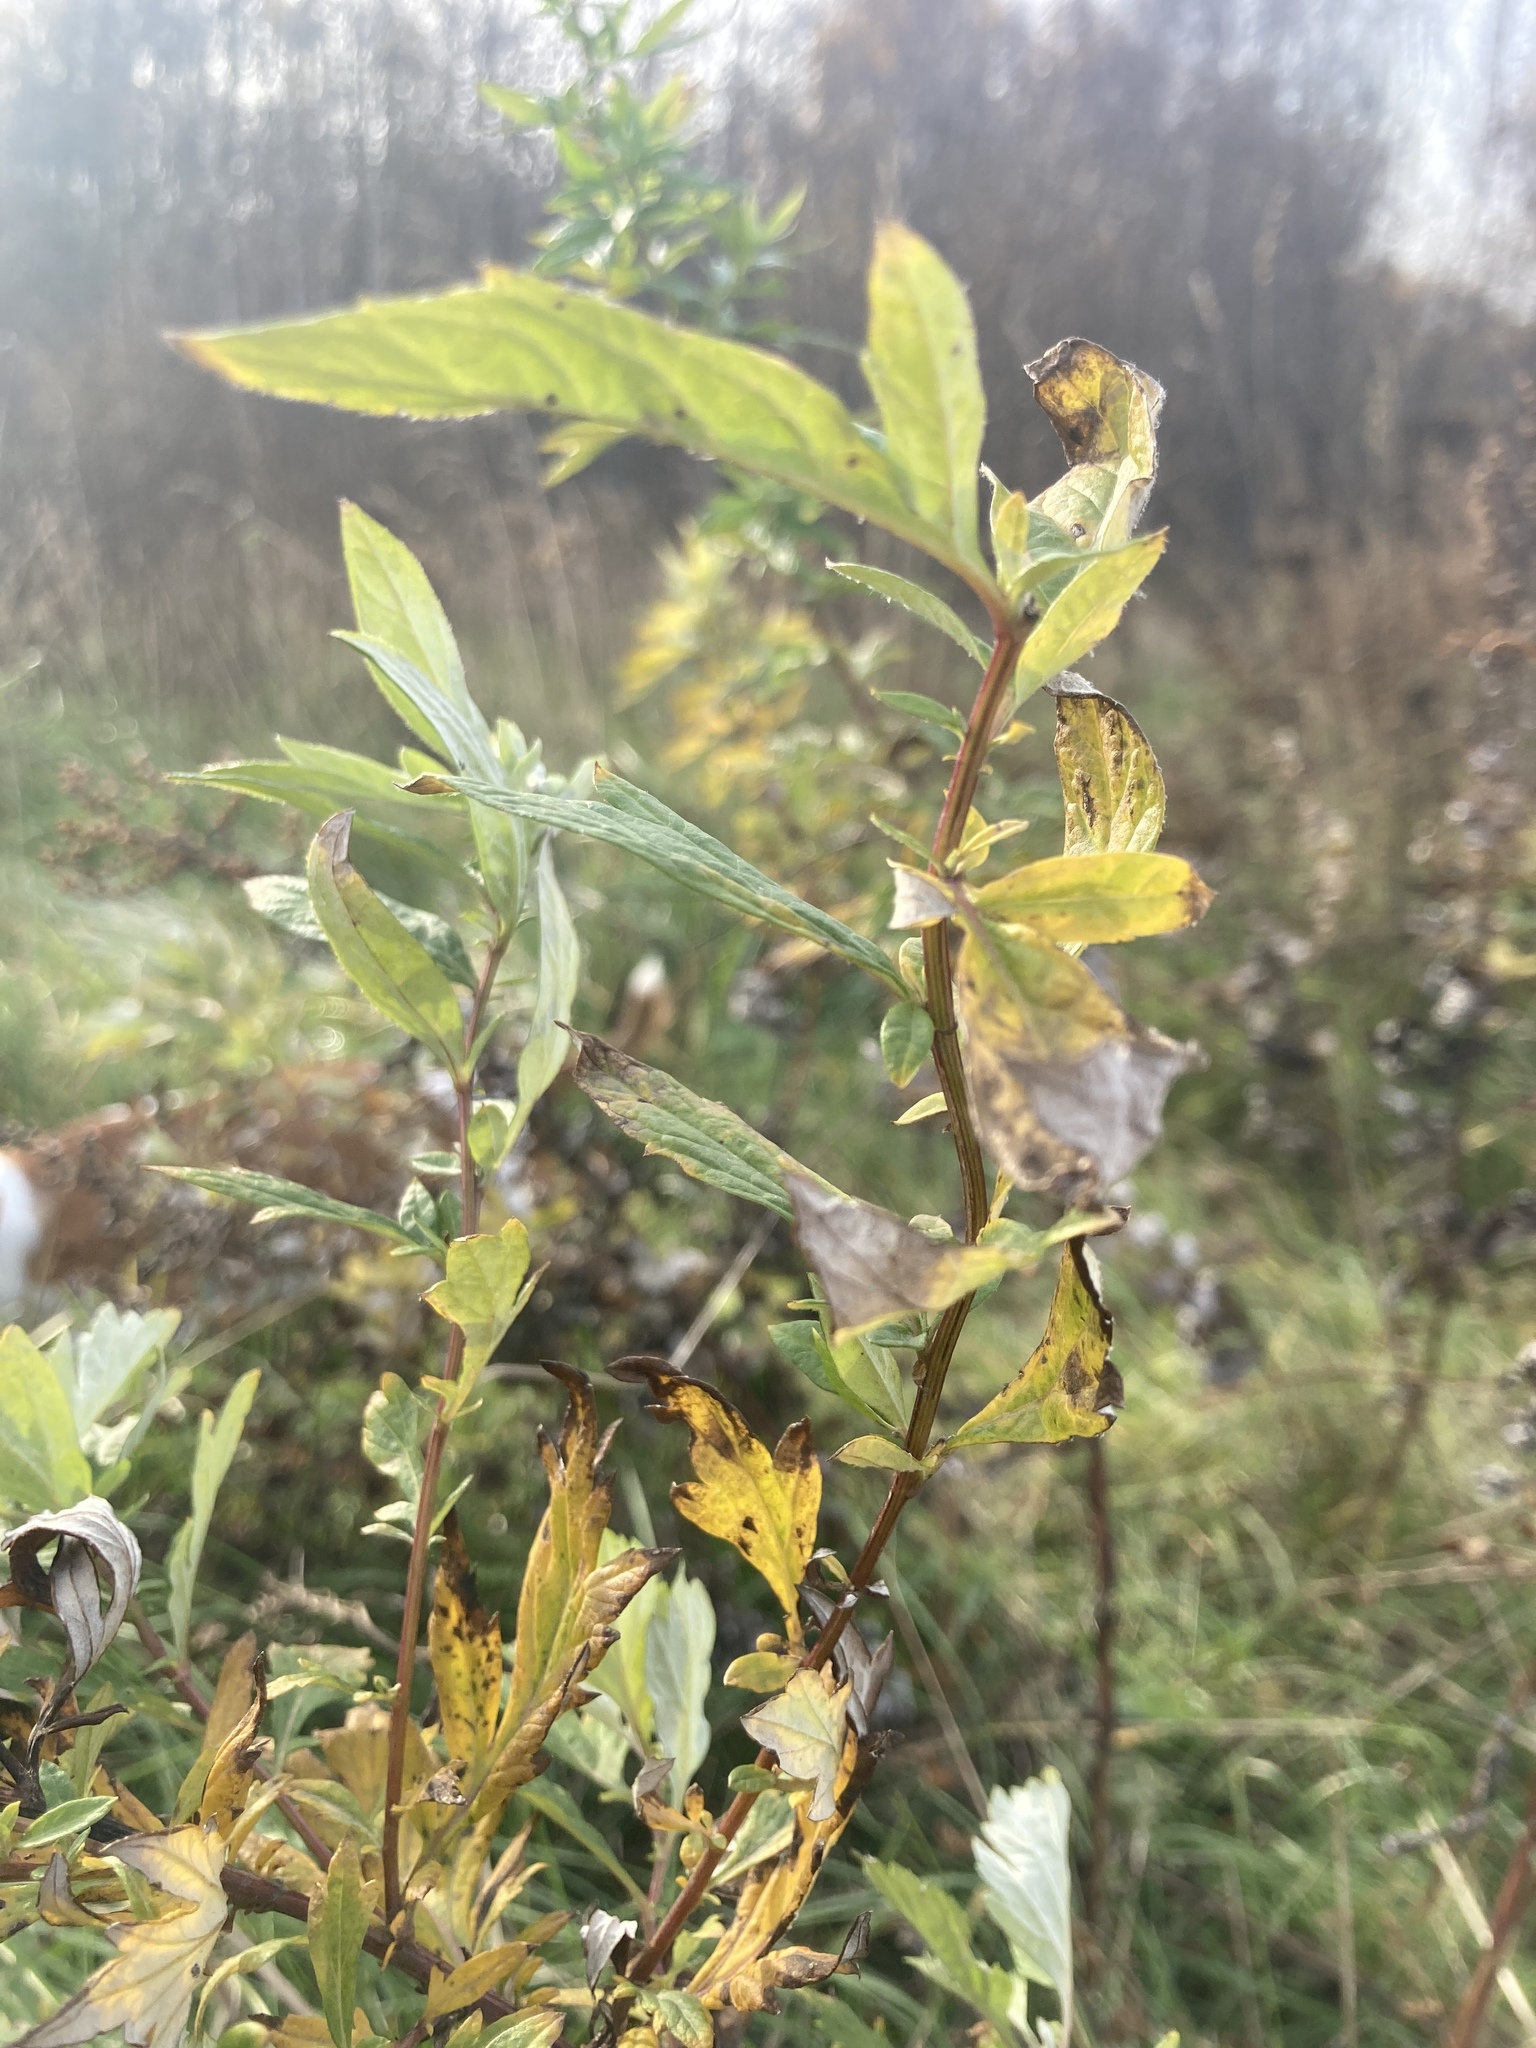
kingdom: Plantae
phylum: Tracheophyta
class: Magnoliopsida
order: Asterales
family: Asteraceae
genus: Artemisia
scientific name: Artemisia vulgaris
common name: Mugwort
